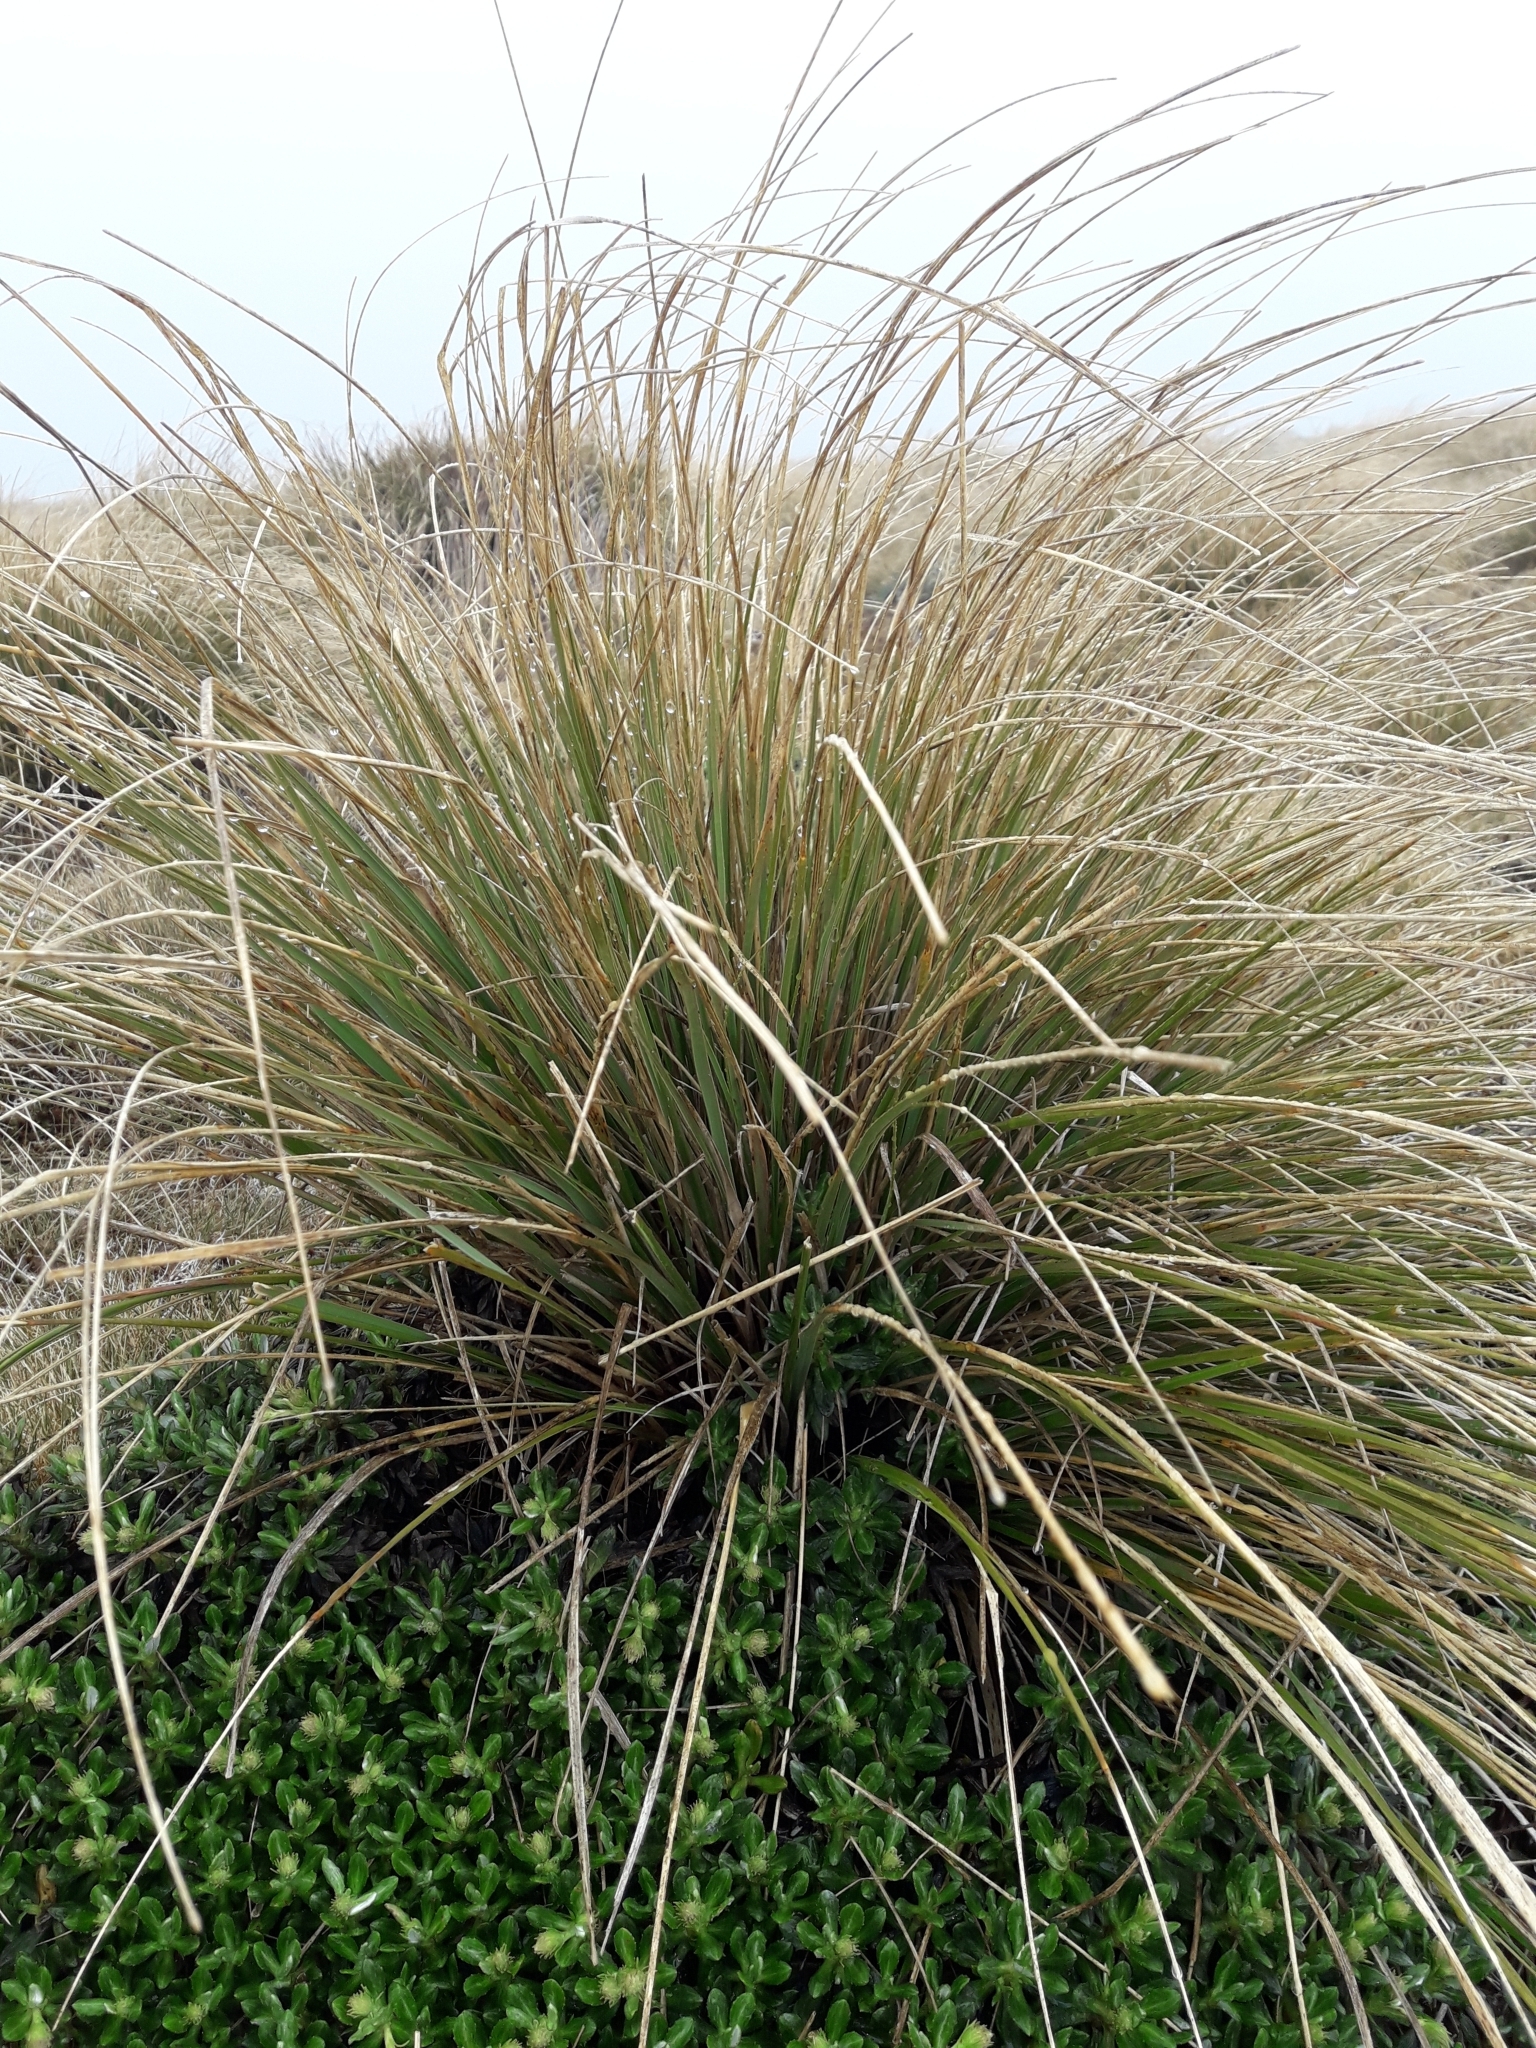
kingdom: Plantae
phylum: Tracheophyta
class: Liliopsida
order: Poales
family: Poaceae
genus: Chionochloa
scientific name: Chionochloa macra
